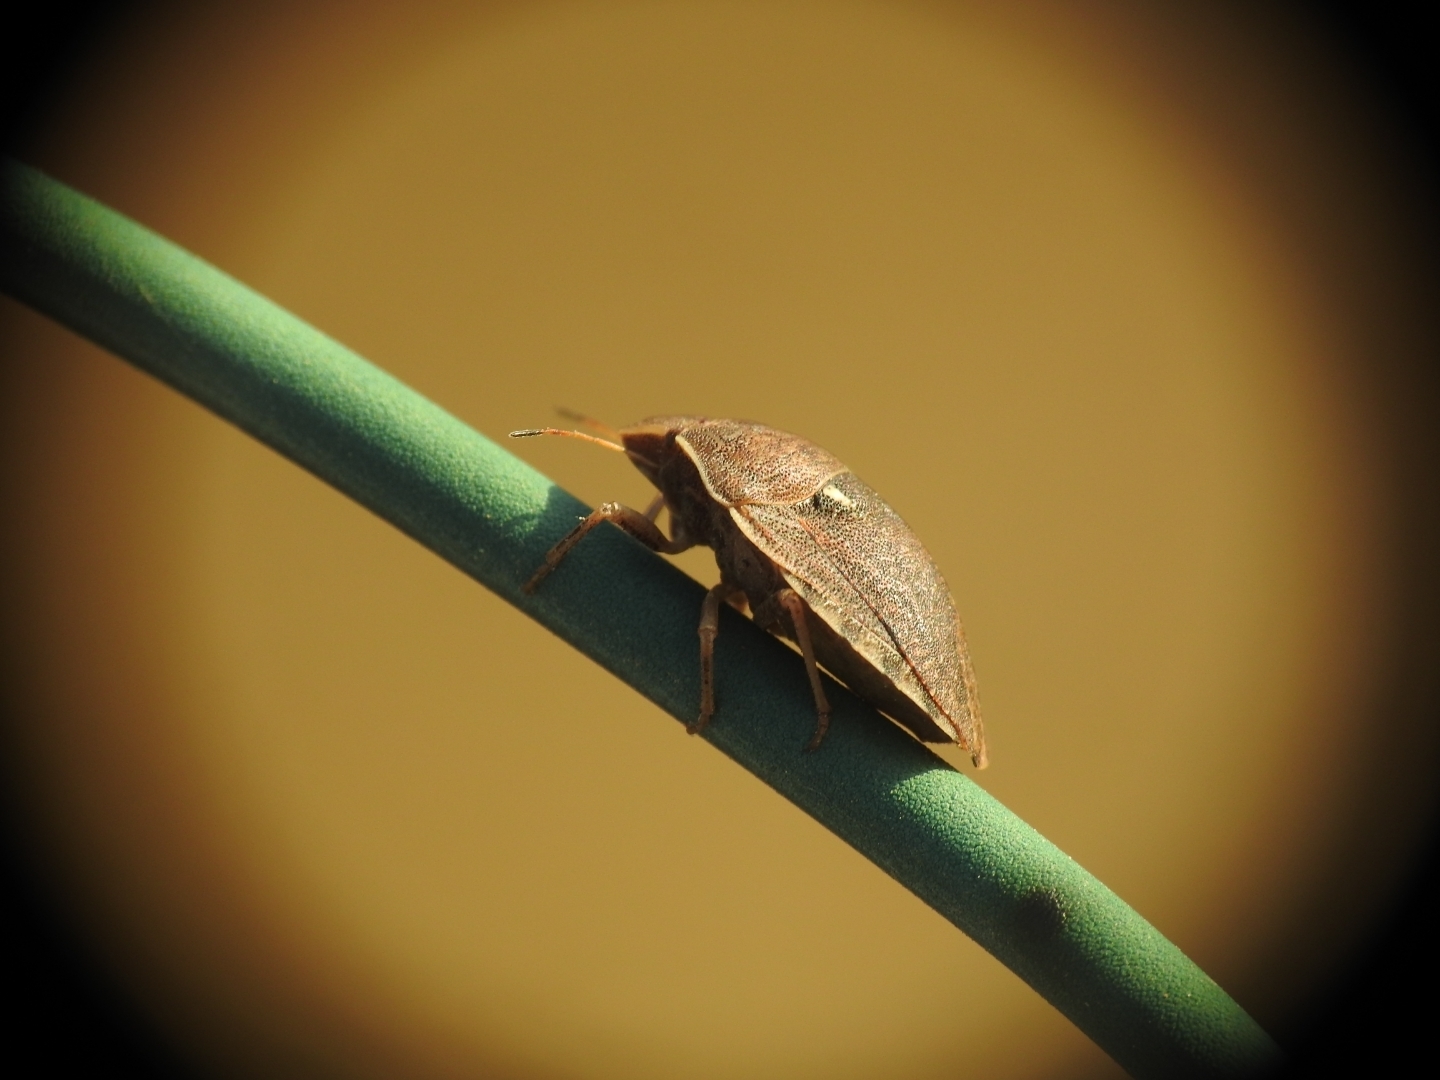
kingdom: Animalia
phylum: Arthropoda
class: Insecta
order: Hemiptera
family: Scutelleridae
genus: Eurygaster
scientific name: Eurygaster integriceps
